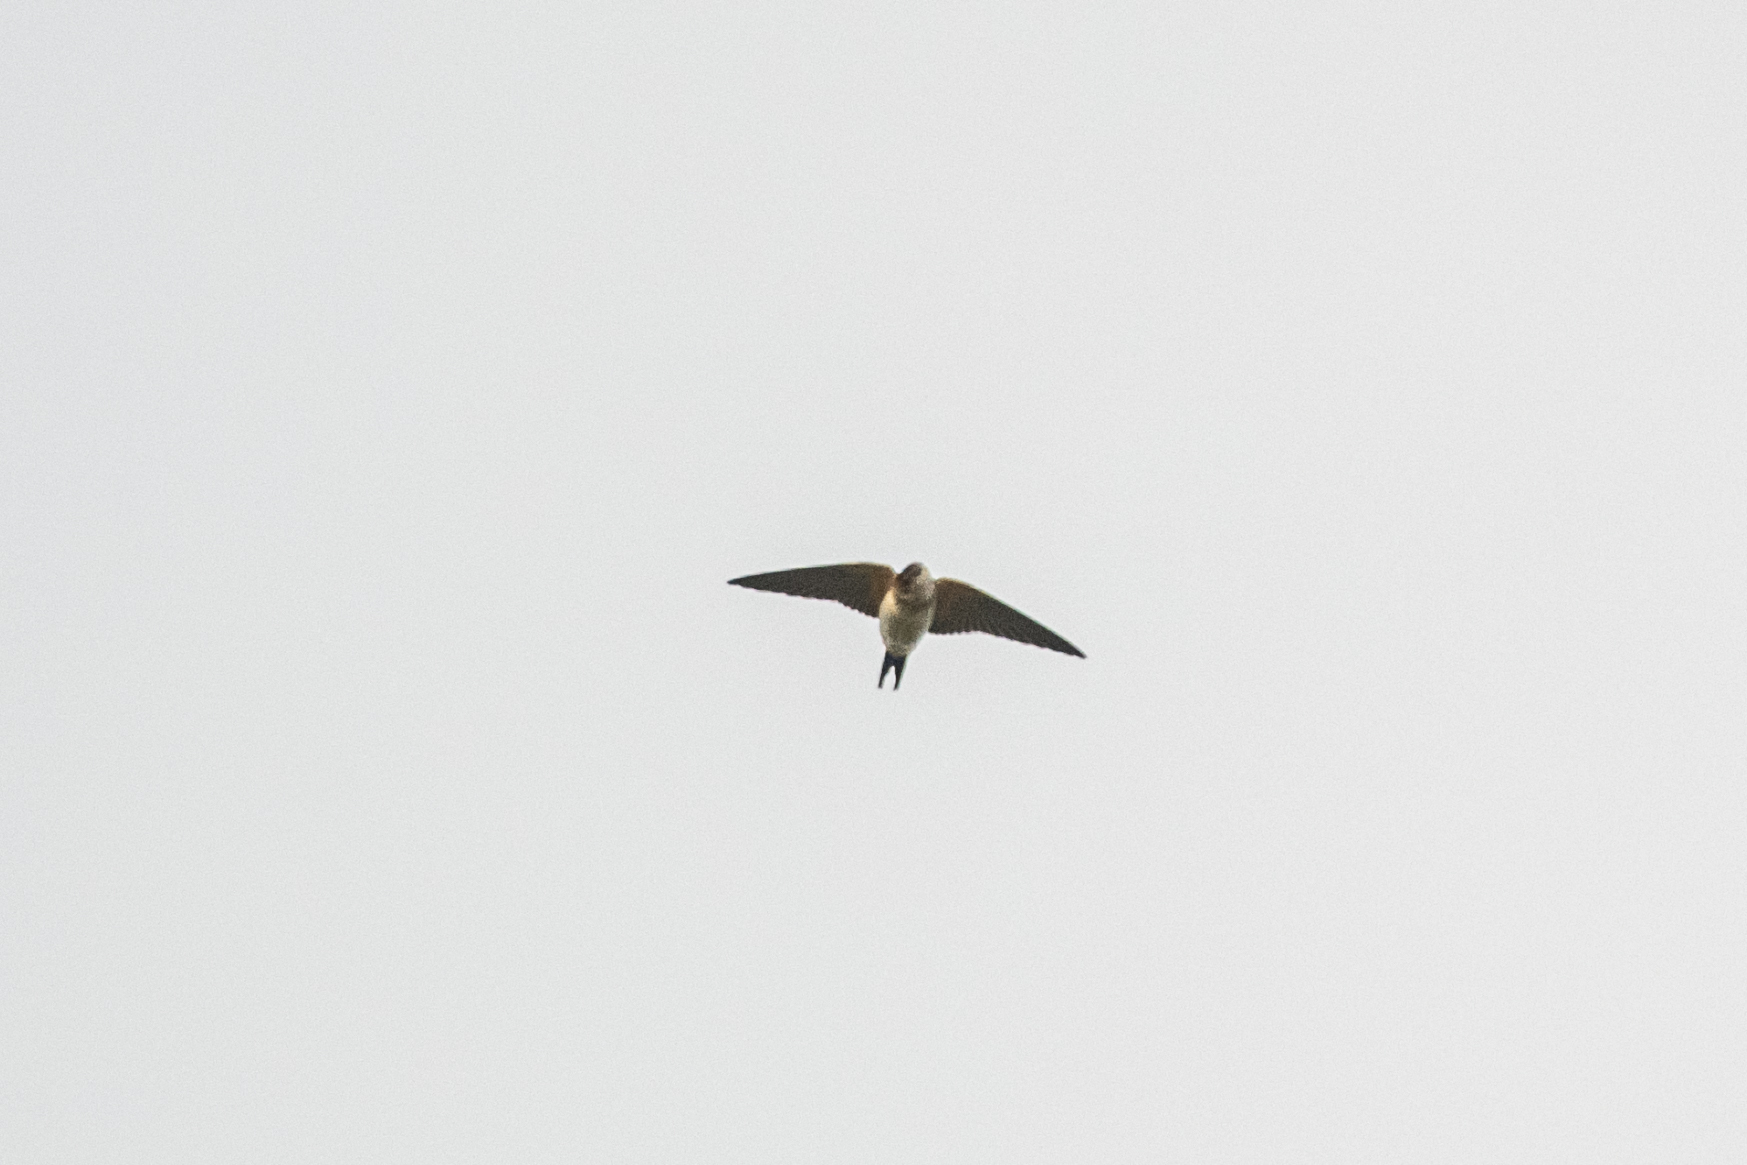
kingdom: Animalia
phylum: Chordata
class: Aves
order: Passeriformes
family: Hirundinidae
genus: Cecropis
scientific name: Cecropis daurica
